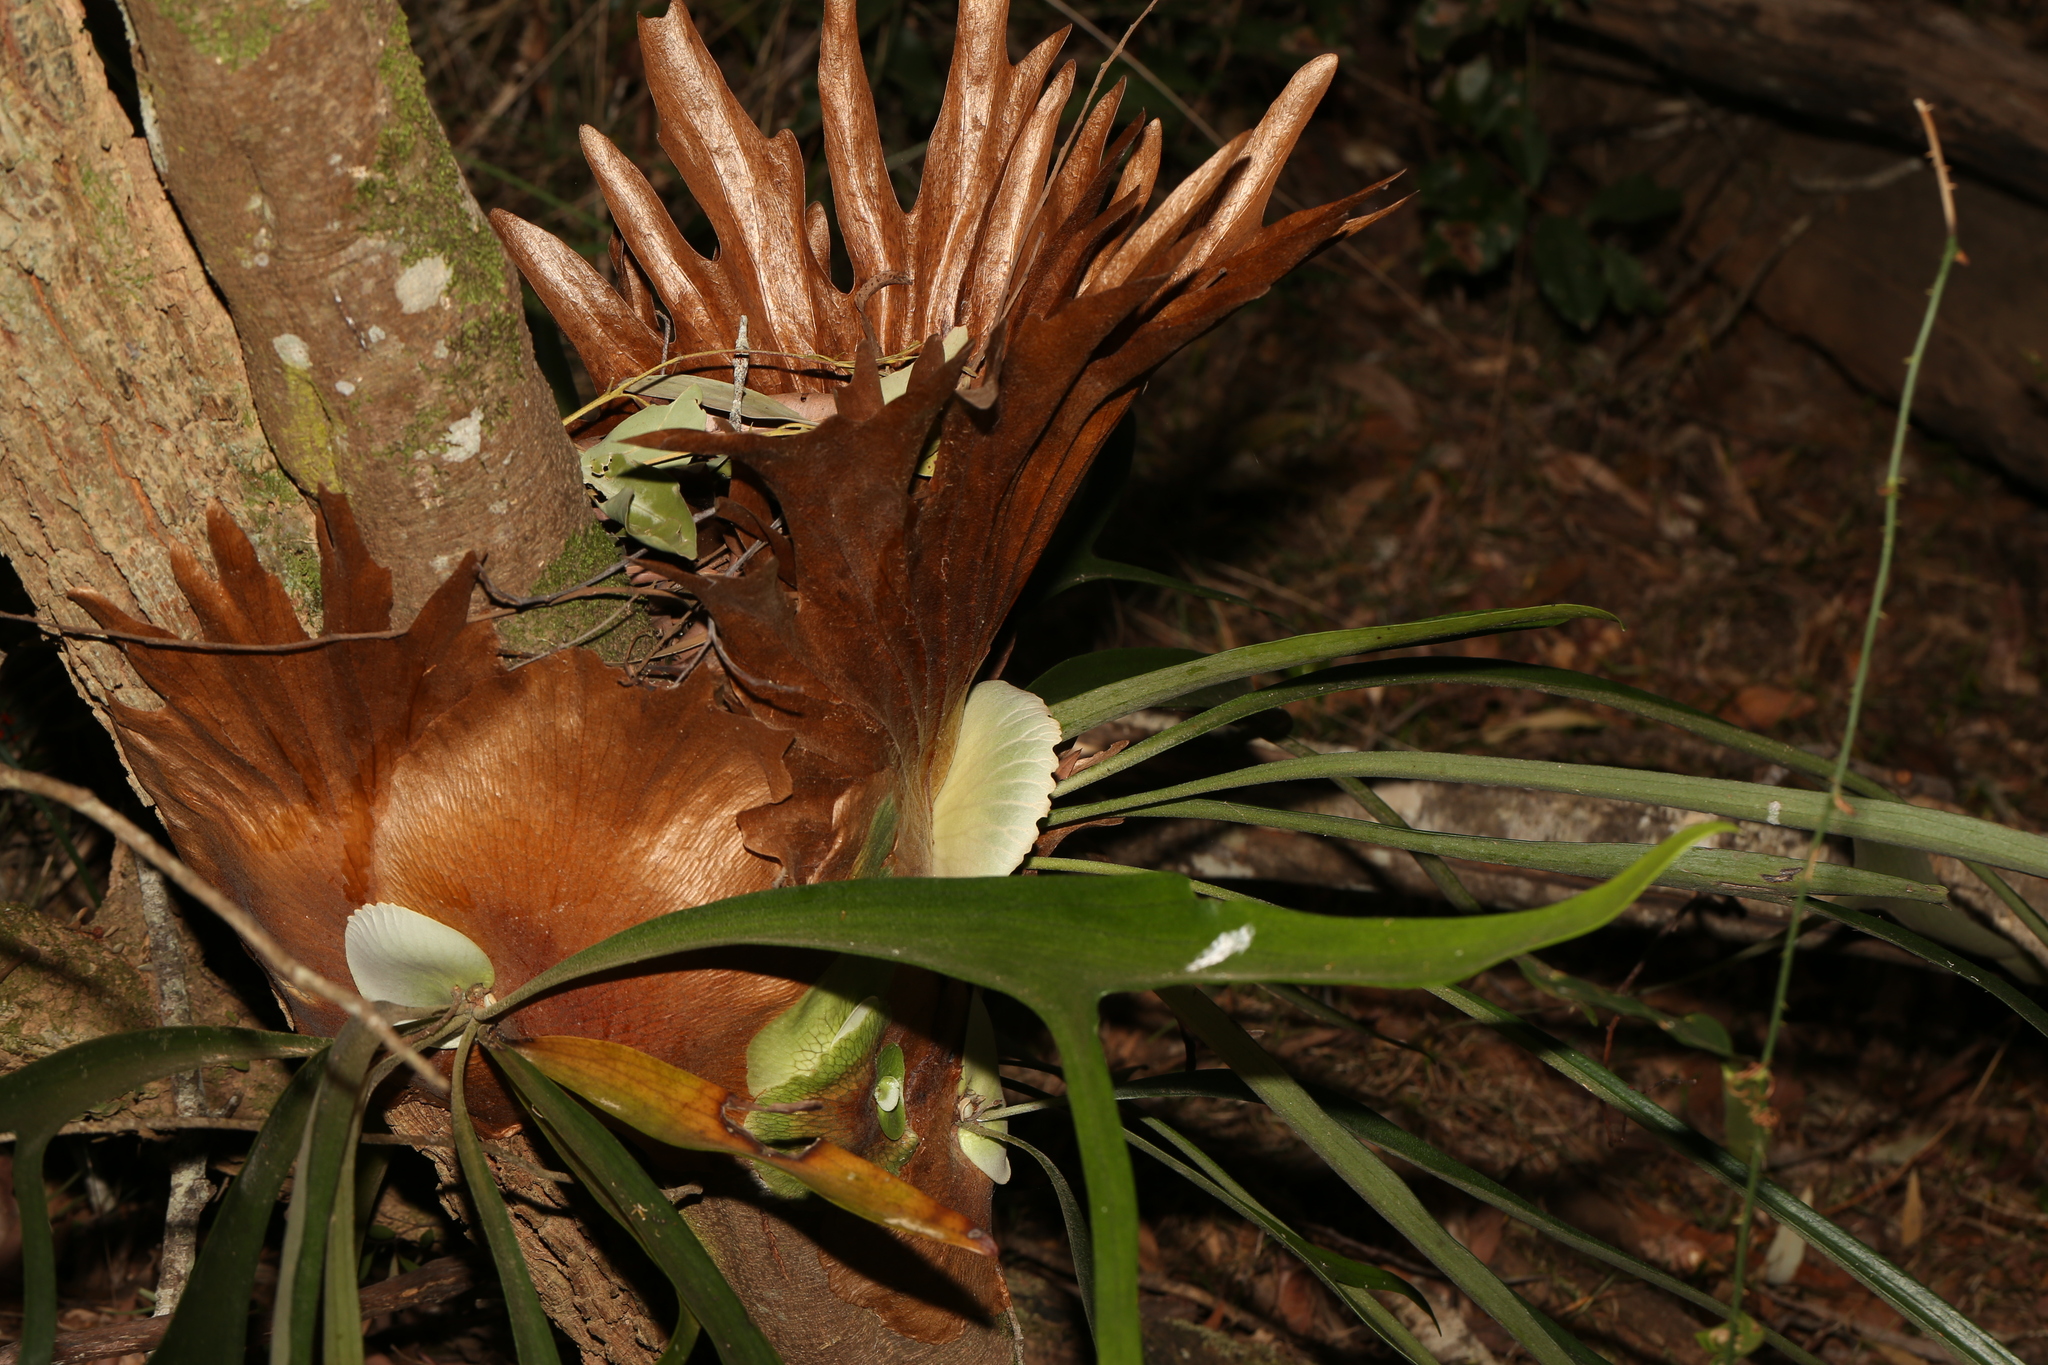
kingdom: Plantae
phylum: Tracheophyta
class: Polypodiopsida
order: Polypodiales
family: Polypodiaceae
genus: Platycerium
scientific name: Platycerium bifurcatum
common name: Elkhorn fern
